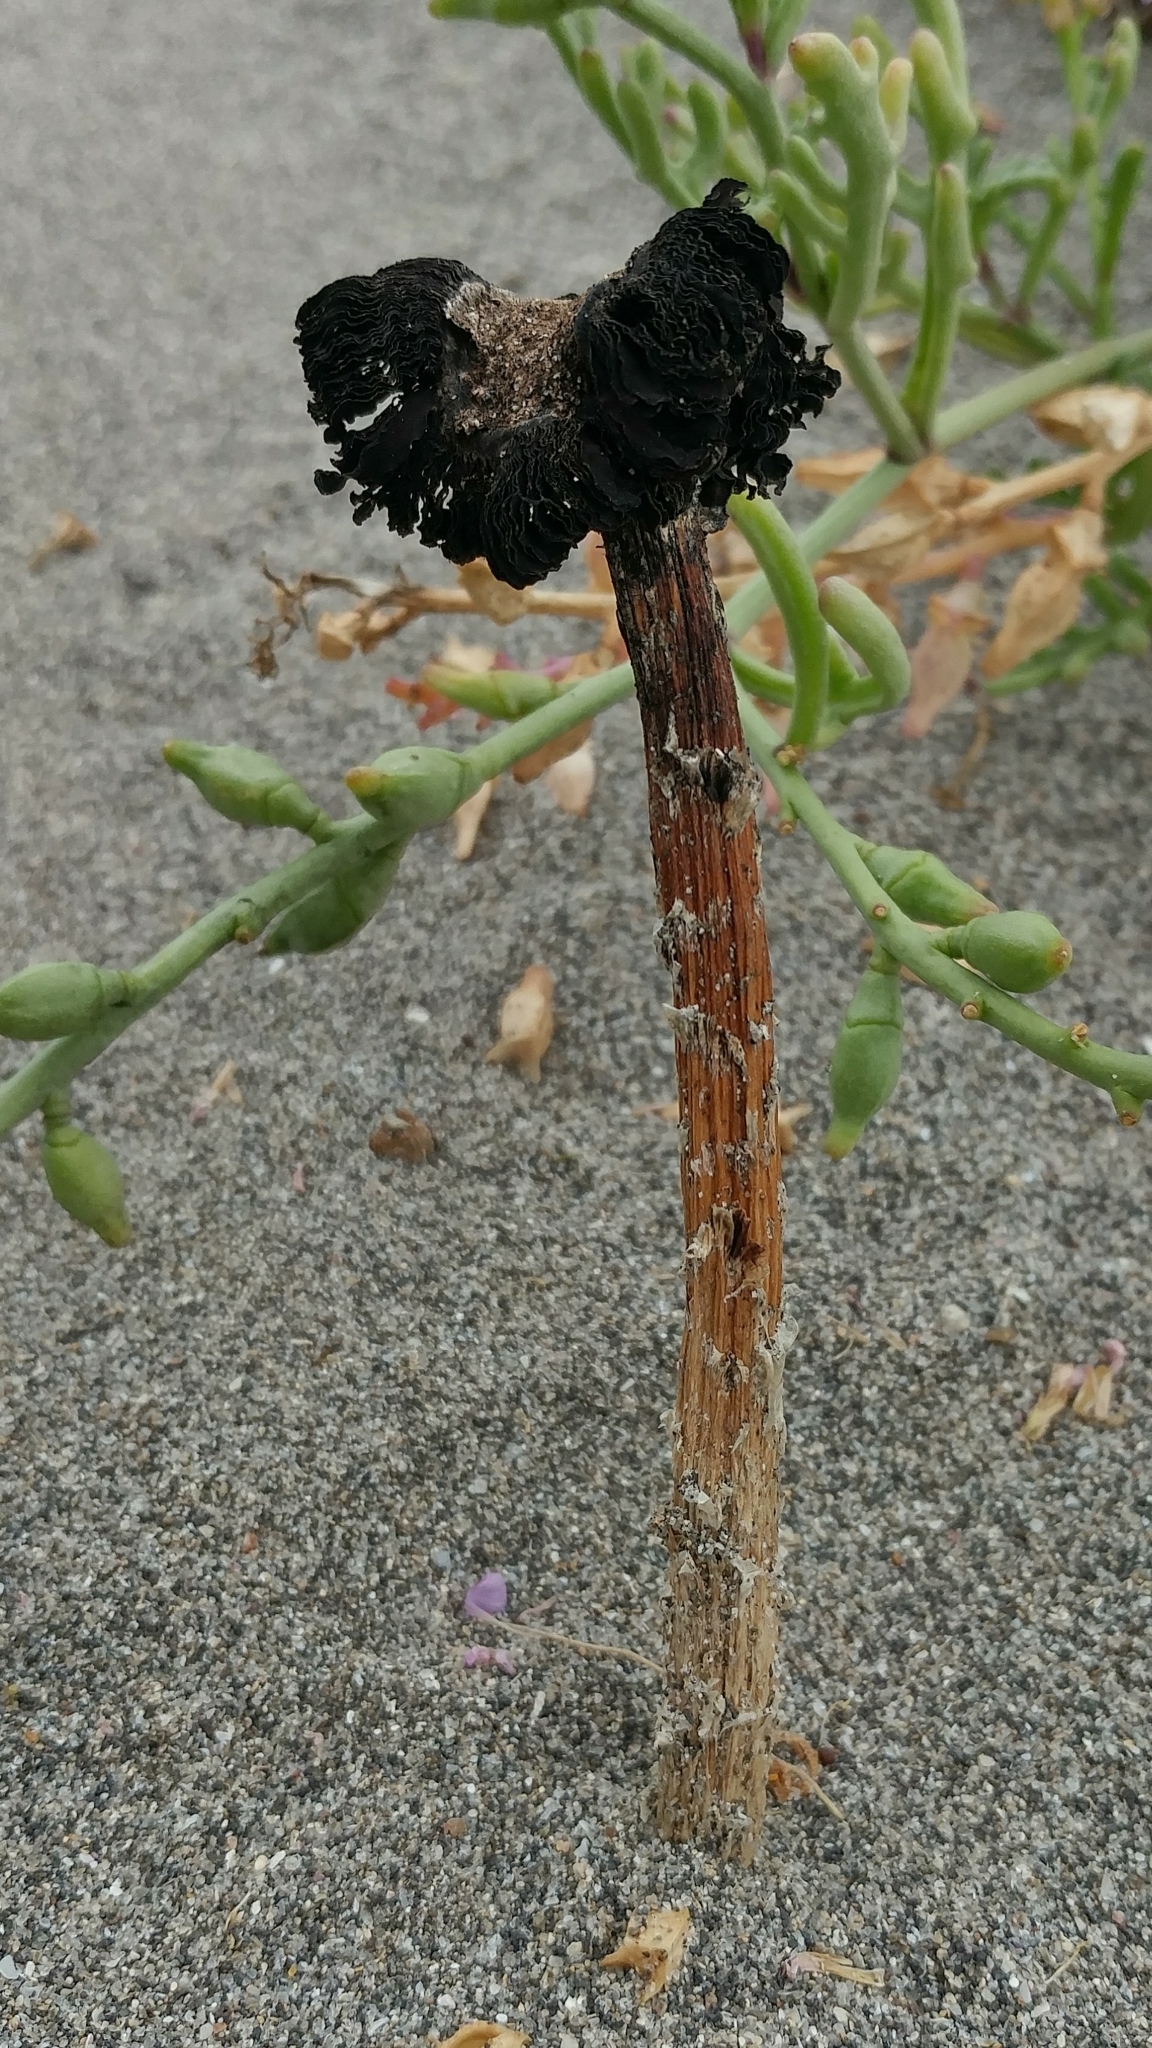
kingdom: Fungi
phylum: Basidiomycota
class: Agaricomycetes
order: Agaricales
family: Agaricaceae
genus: Montagnea
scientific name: Montagnea arenaria
